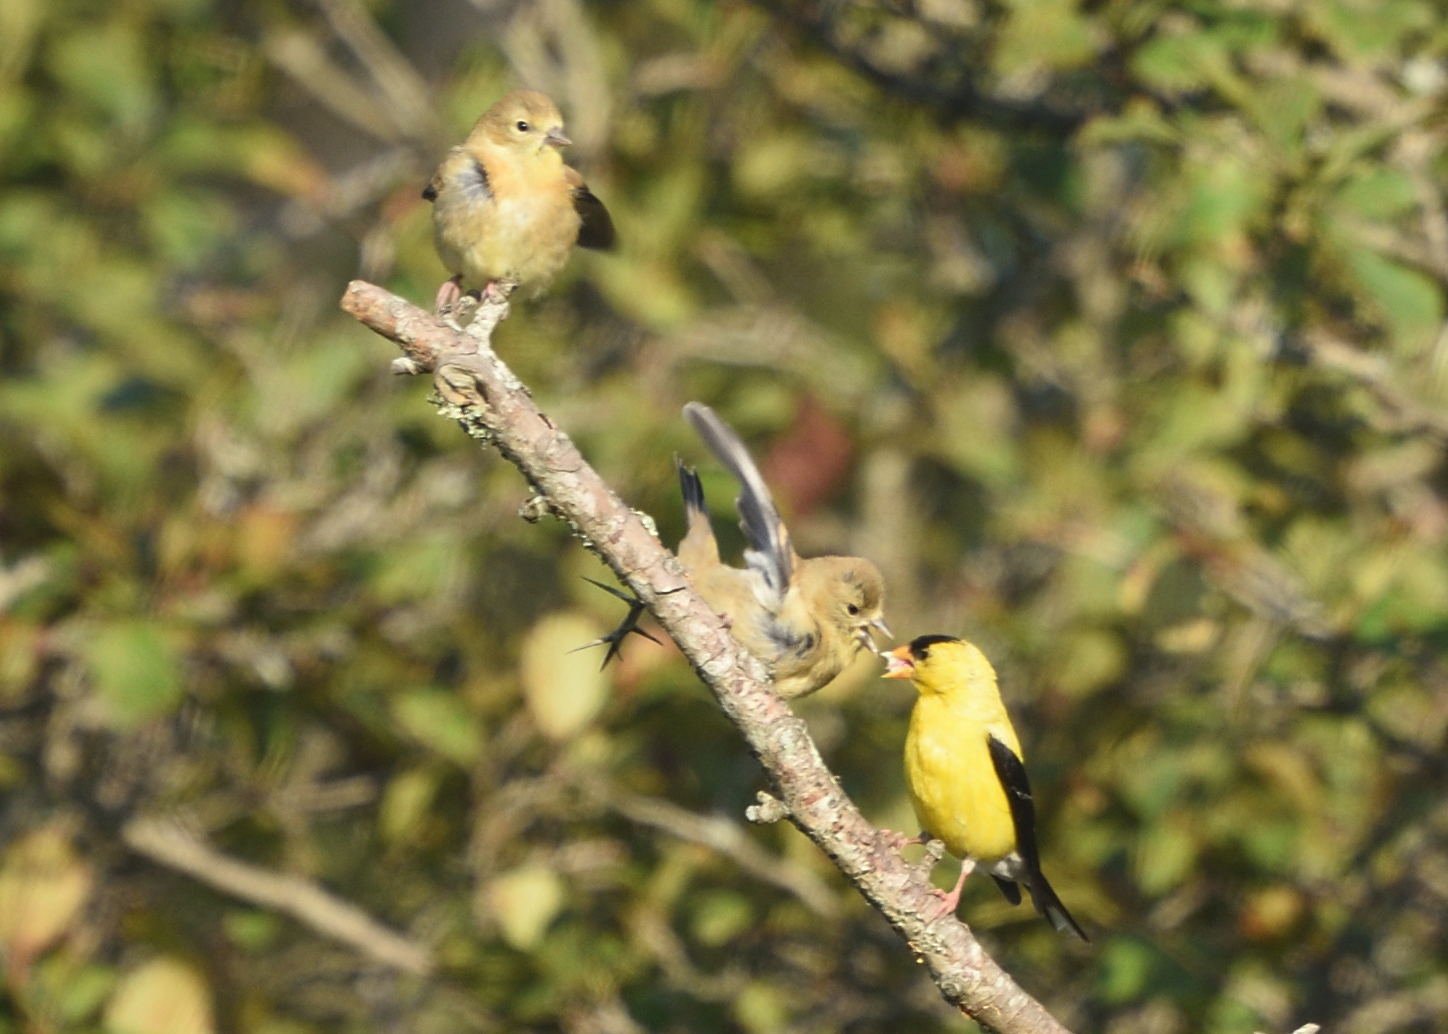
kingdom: Animalia
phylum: Chordata
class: Aves
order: Passeriformes
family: Fringillidae
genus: Spinus
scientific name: Spinus tristis
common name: American goldfinch
